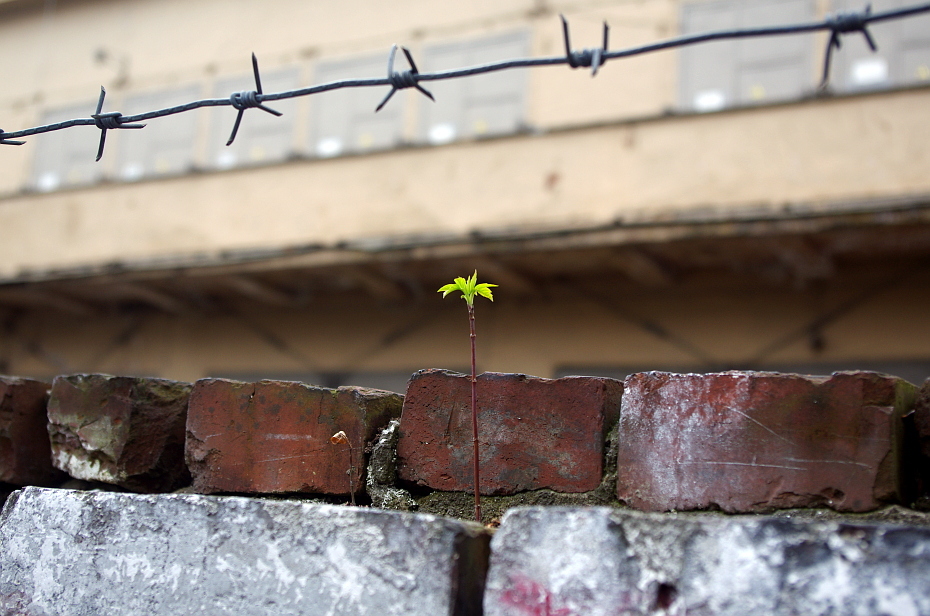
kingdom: Plantae
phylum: Tracheophyta
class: Magnoliopsida
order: Sapindales
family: Sapindaceae
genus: Acer
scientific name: Acer negundo
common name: Ashleaf maple
